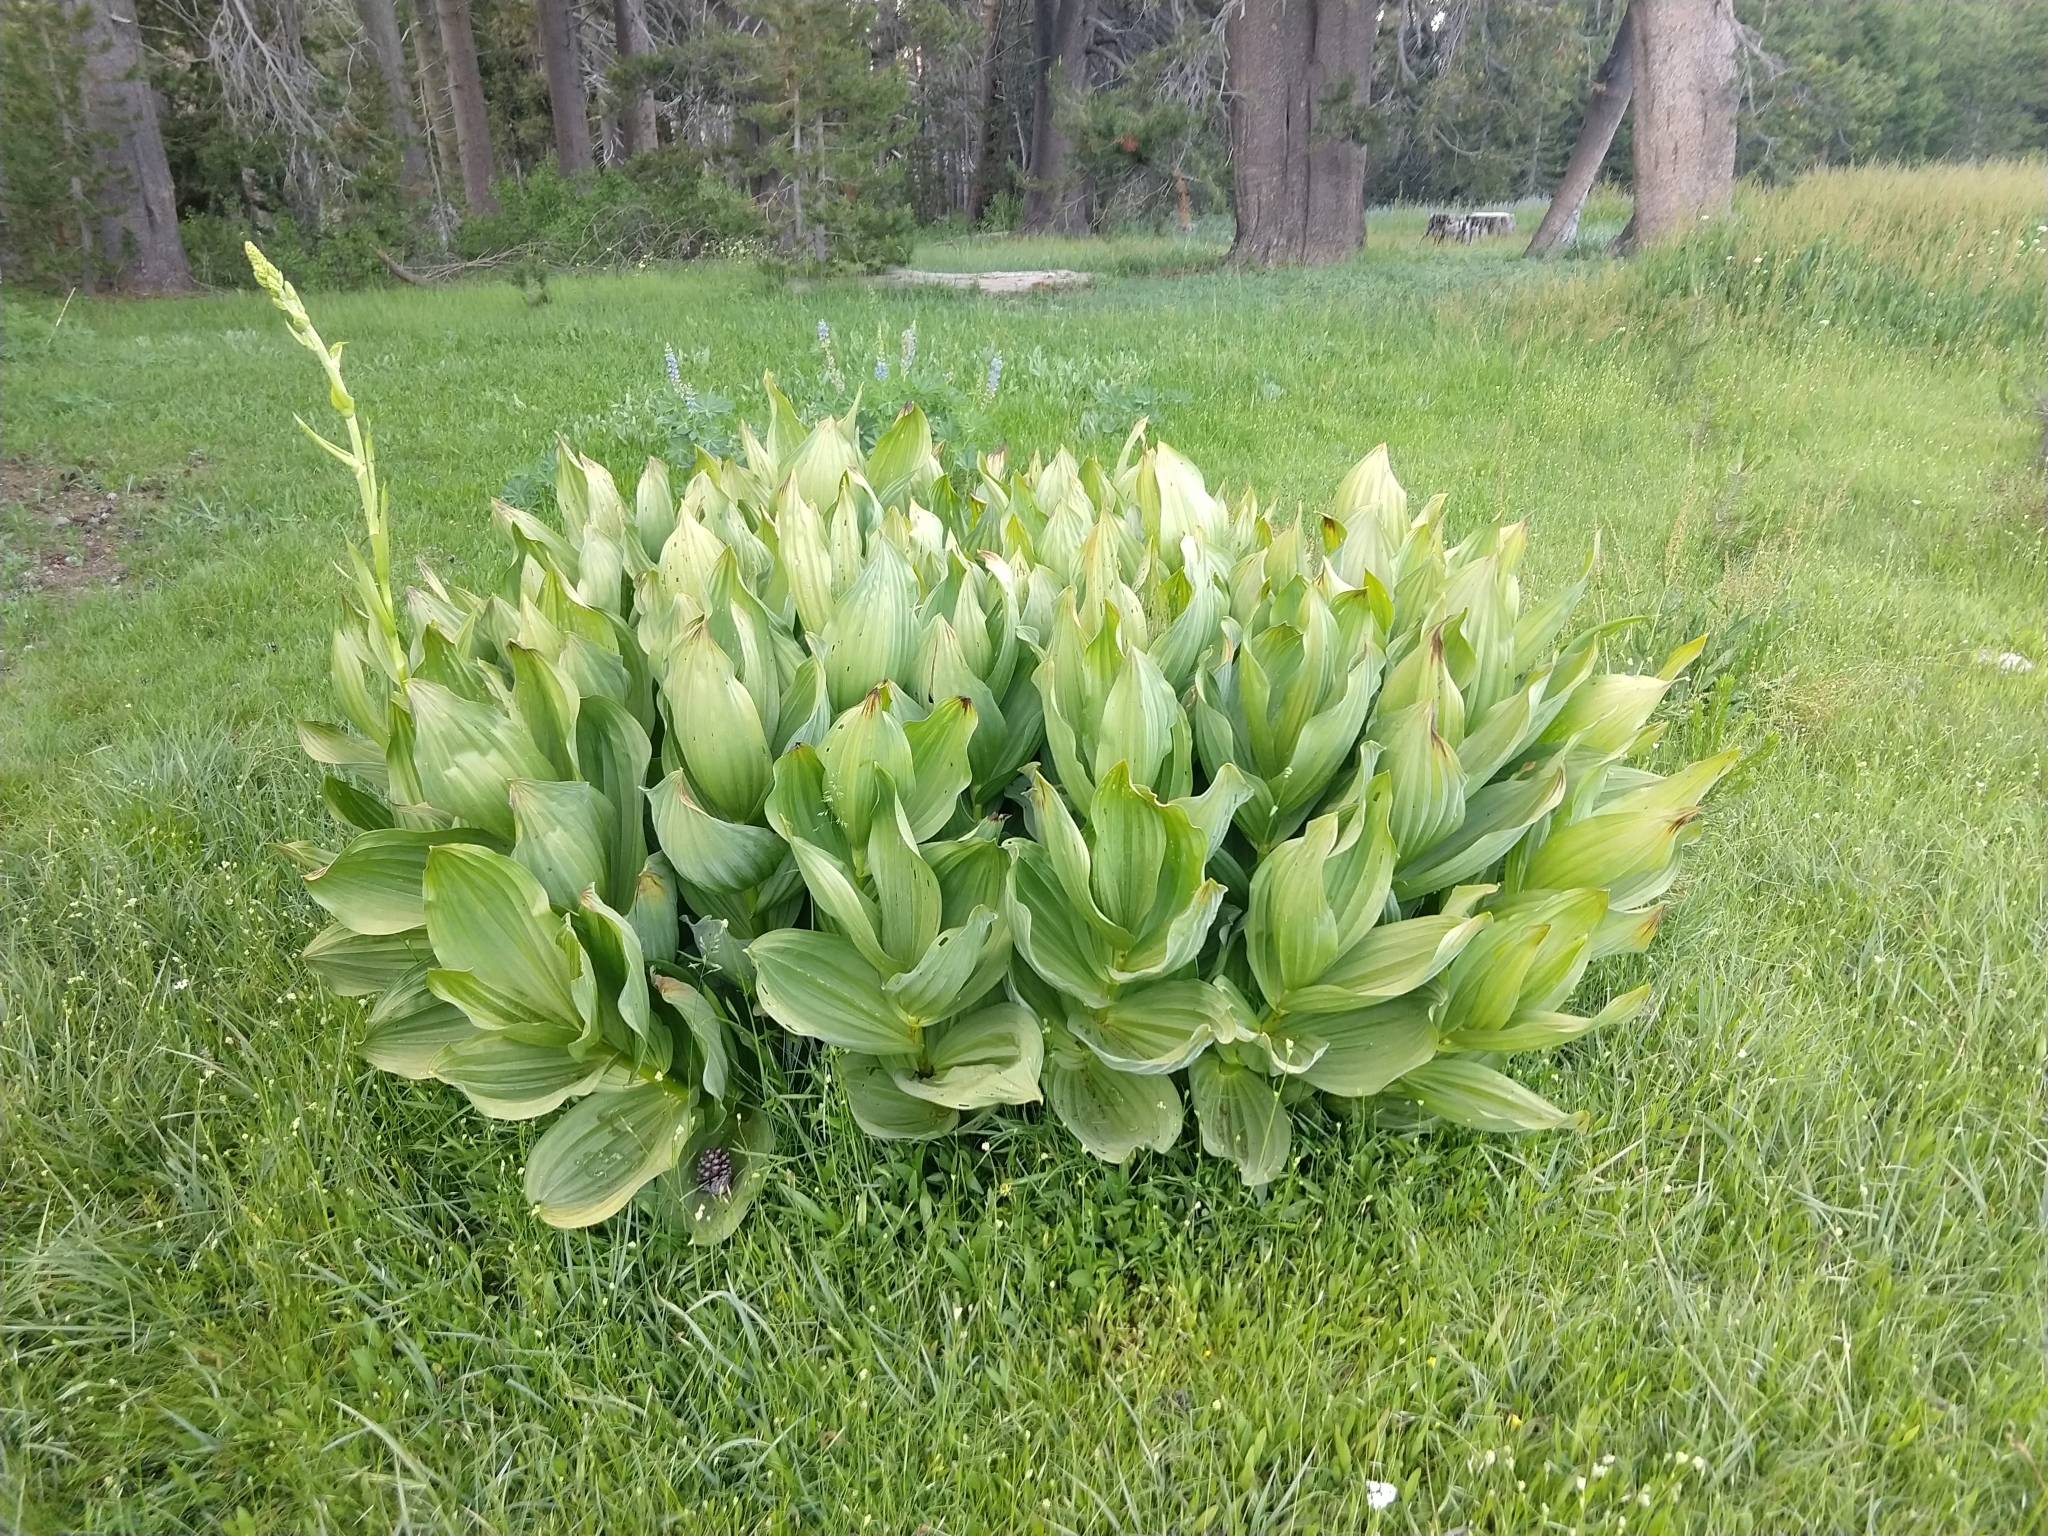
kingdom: Plantae
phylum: Tracheophyta
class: Liliopsida
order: Liliales
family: Melanthiaceae
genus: Veratrum
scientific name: Veratrum californicum
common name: California veratrum
